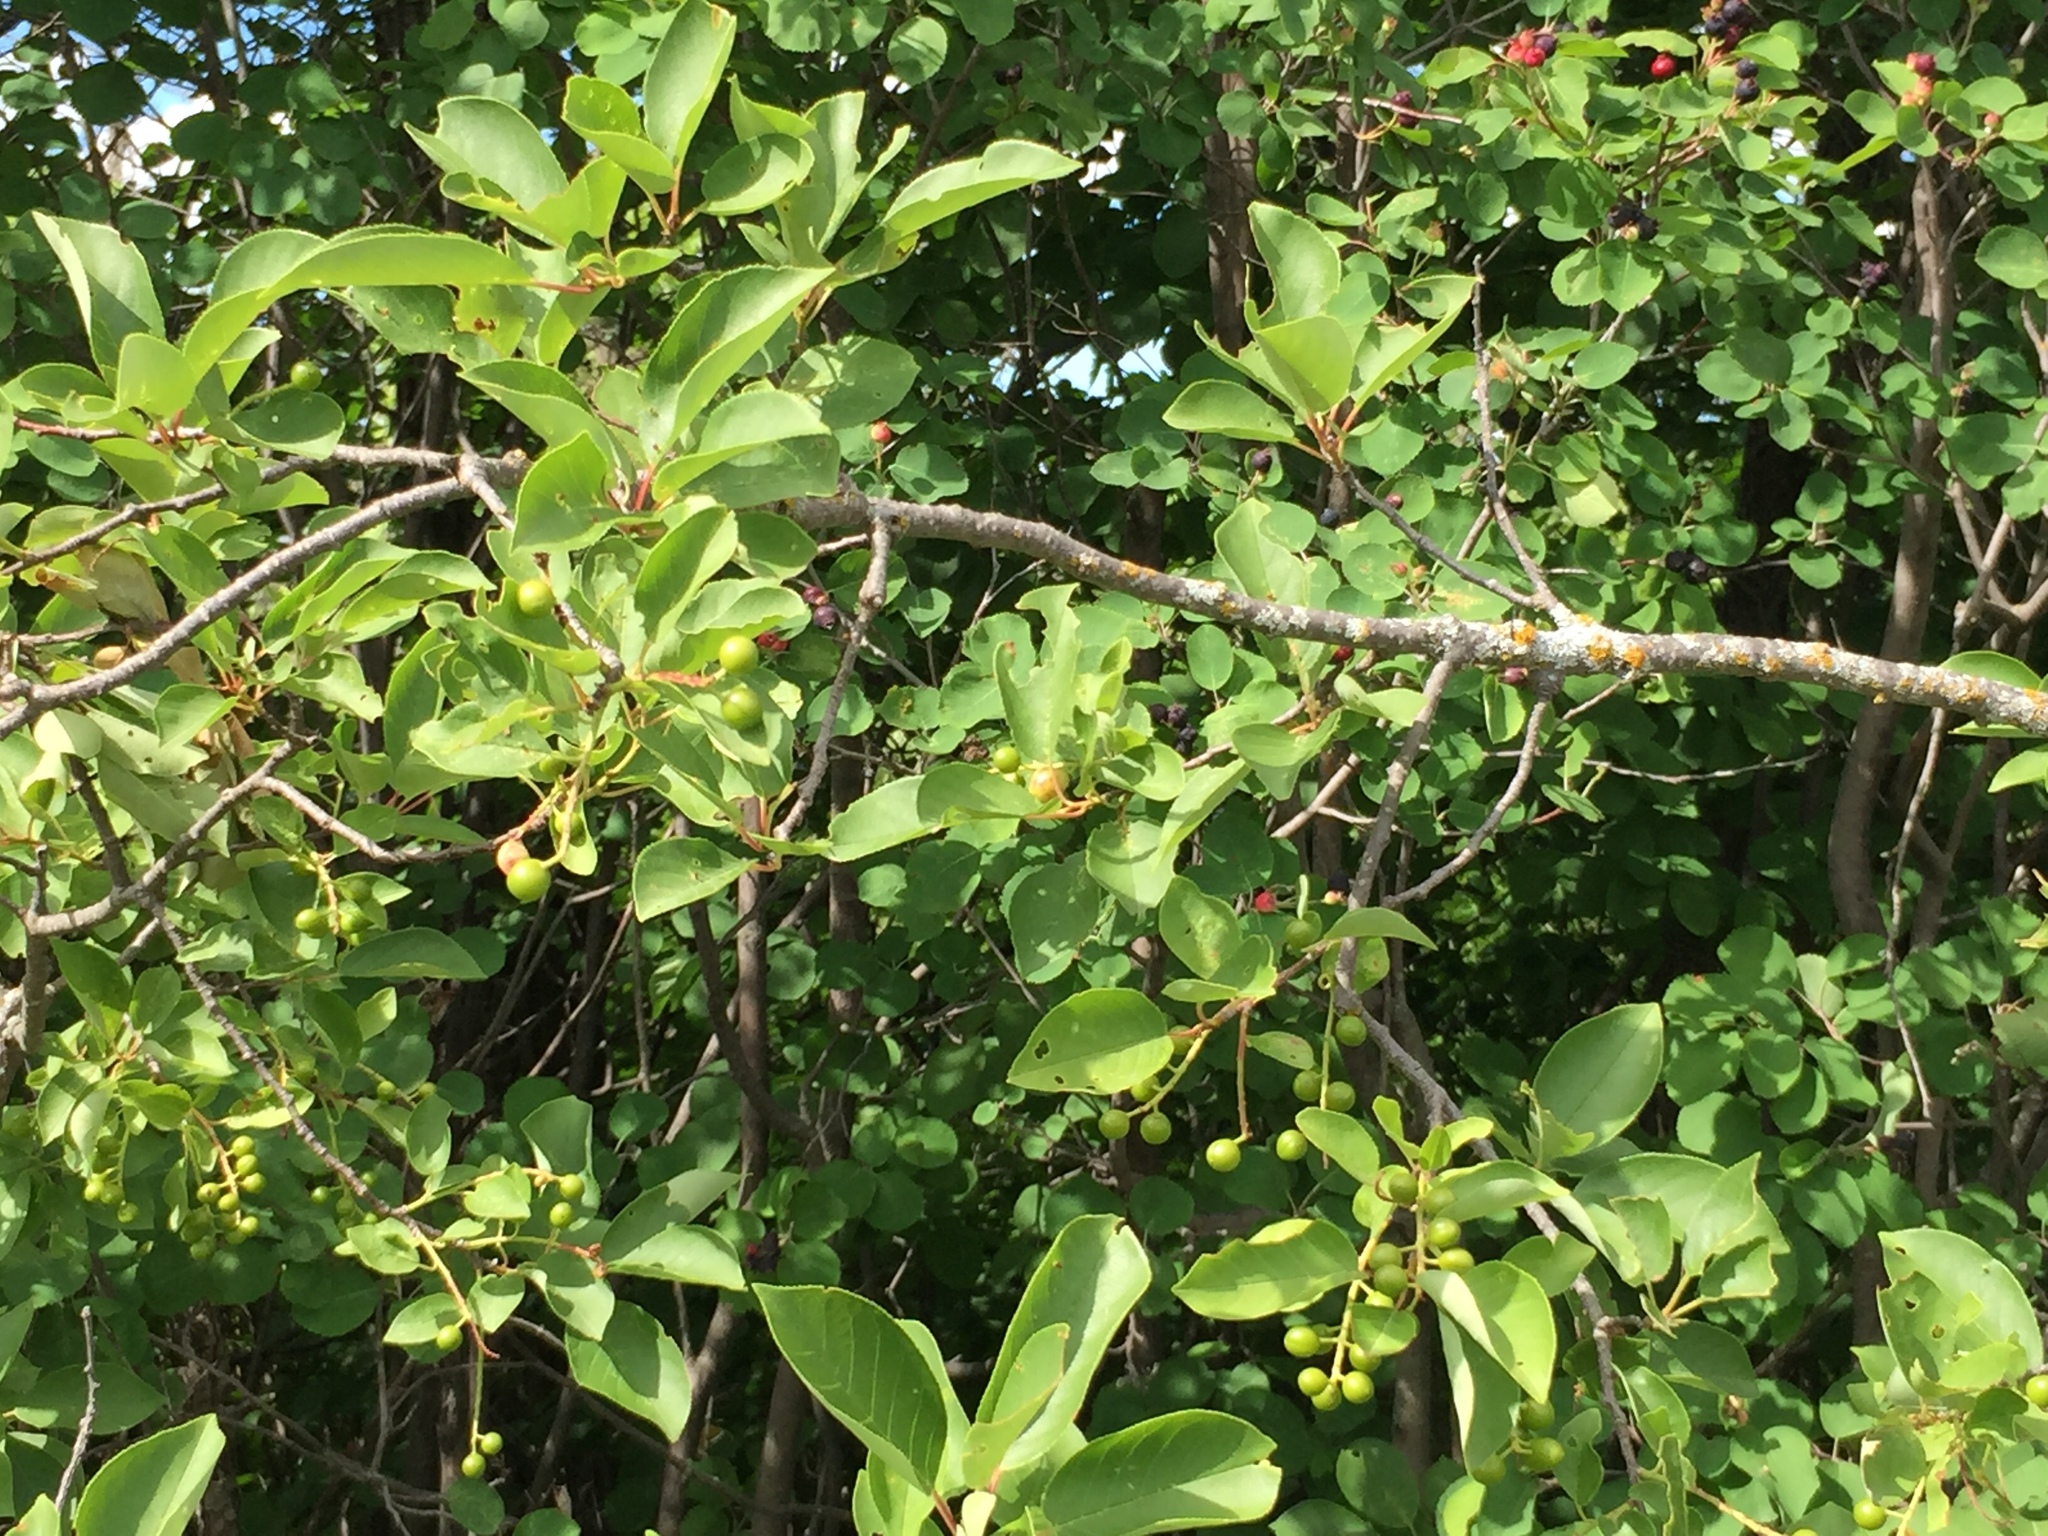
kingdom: Plantae
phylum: Tracheophyta
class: Magnoliopsida
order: Rosales
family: Rosaceae
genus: Prunus
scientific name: Prunus virginiana
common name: Chokecherry
